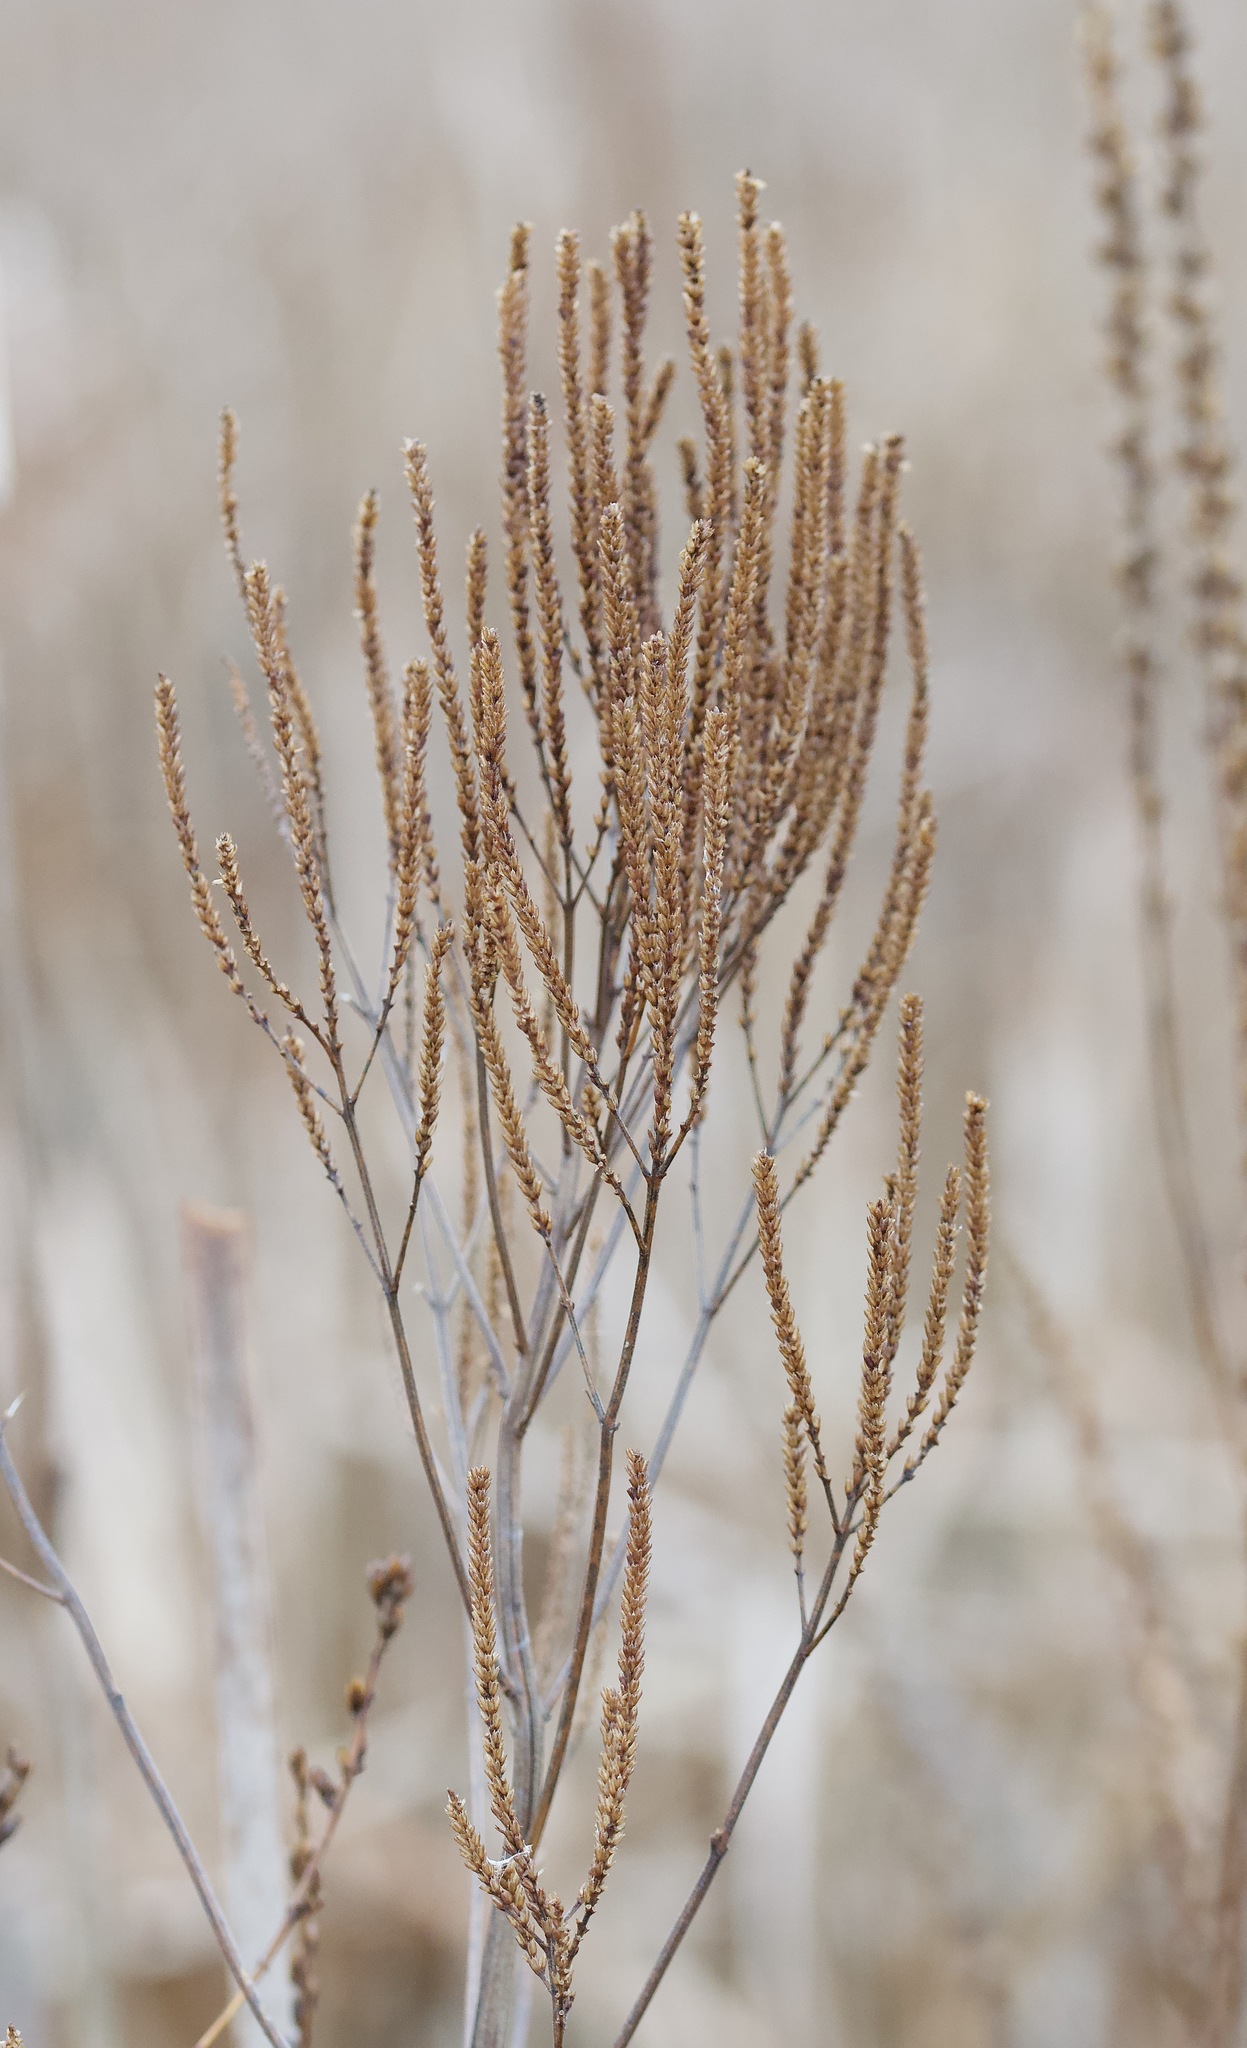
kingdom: Plantae
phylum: Tracheophyta
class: Magnoliopsida
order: Lamiales
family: Verbenaceae
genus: Verbena
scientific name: Verbena hastata
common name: American blue vervain
